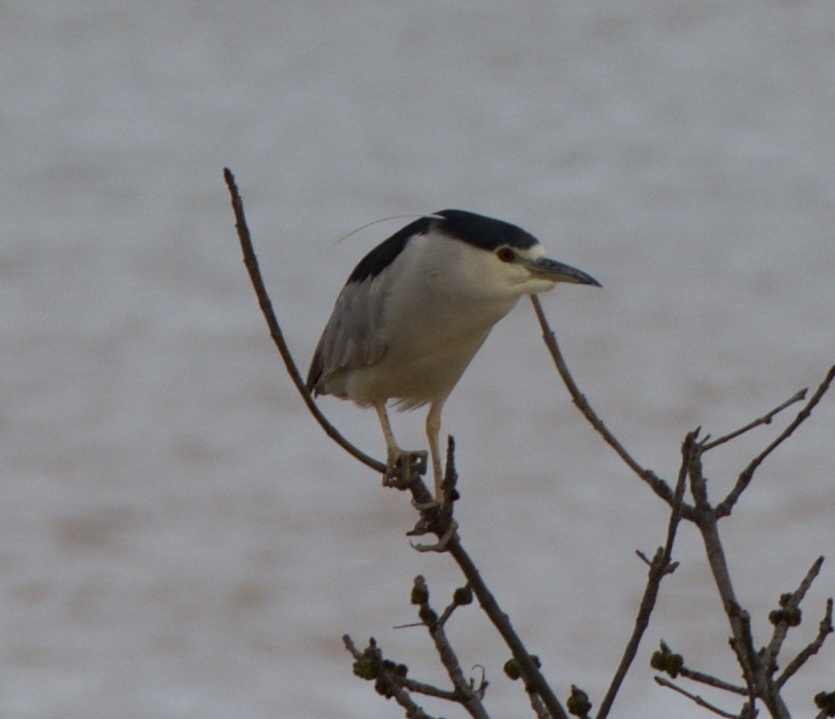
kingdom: Animalia
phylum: Chordata
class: Aves
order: Pelecaniformes
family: Ardeidae
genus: Nycticorax
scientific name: Nycticorax nycticorax
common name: Black-crowned night heron
